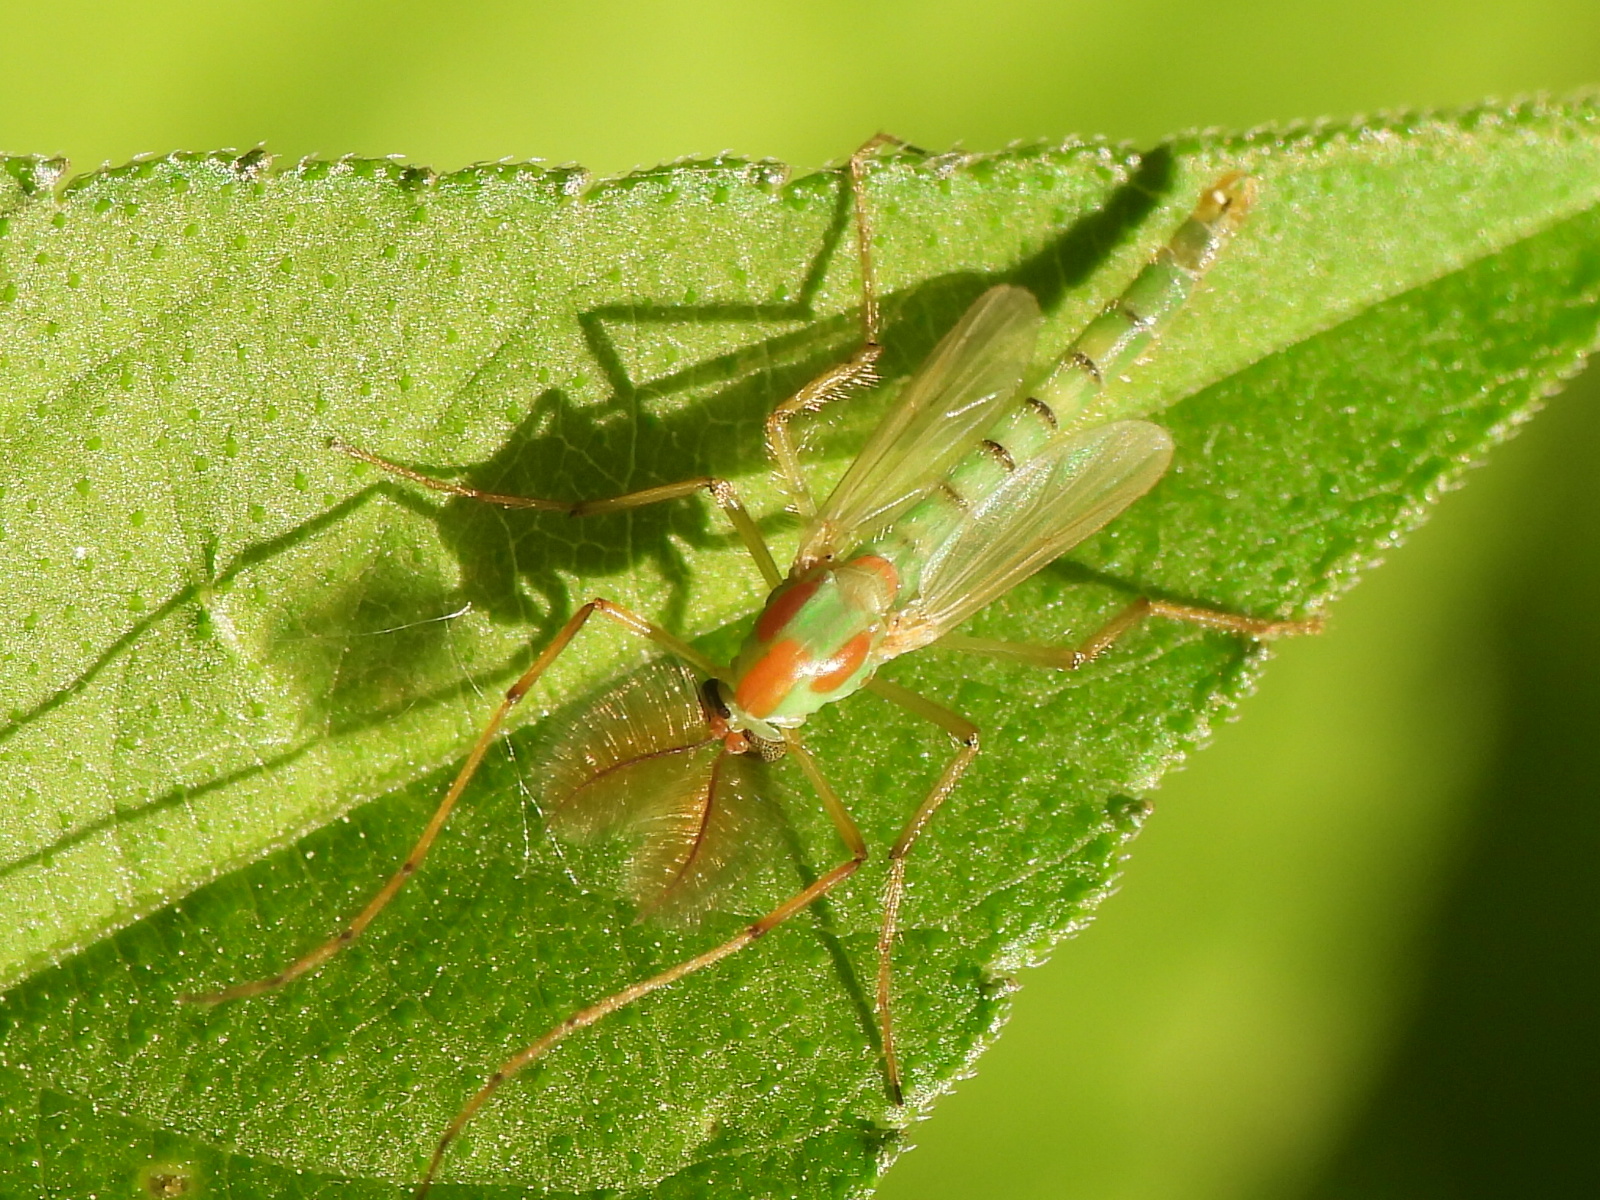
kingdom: Animalia
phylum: Arthropoda
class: Insecta
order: Diptera
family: Chironomidae
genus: Axarus
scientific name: Axarus
